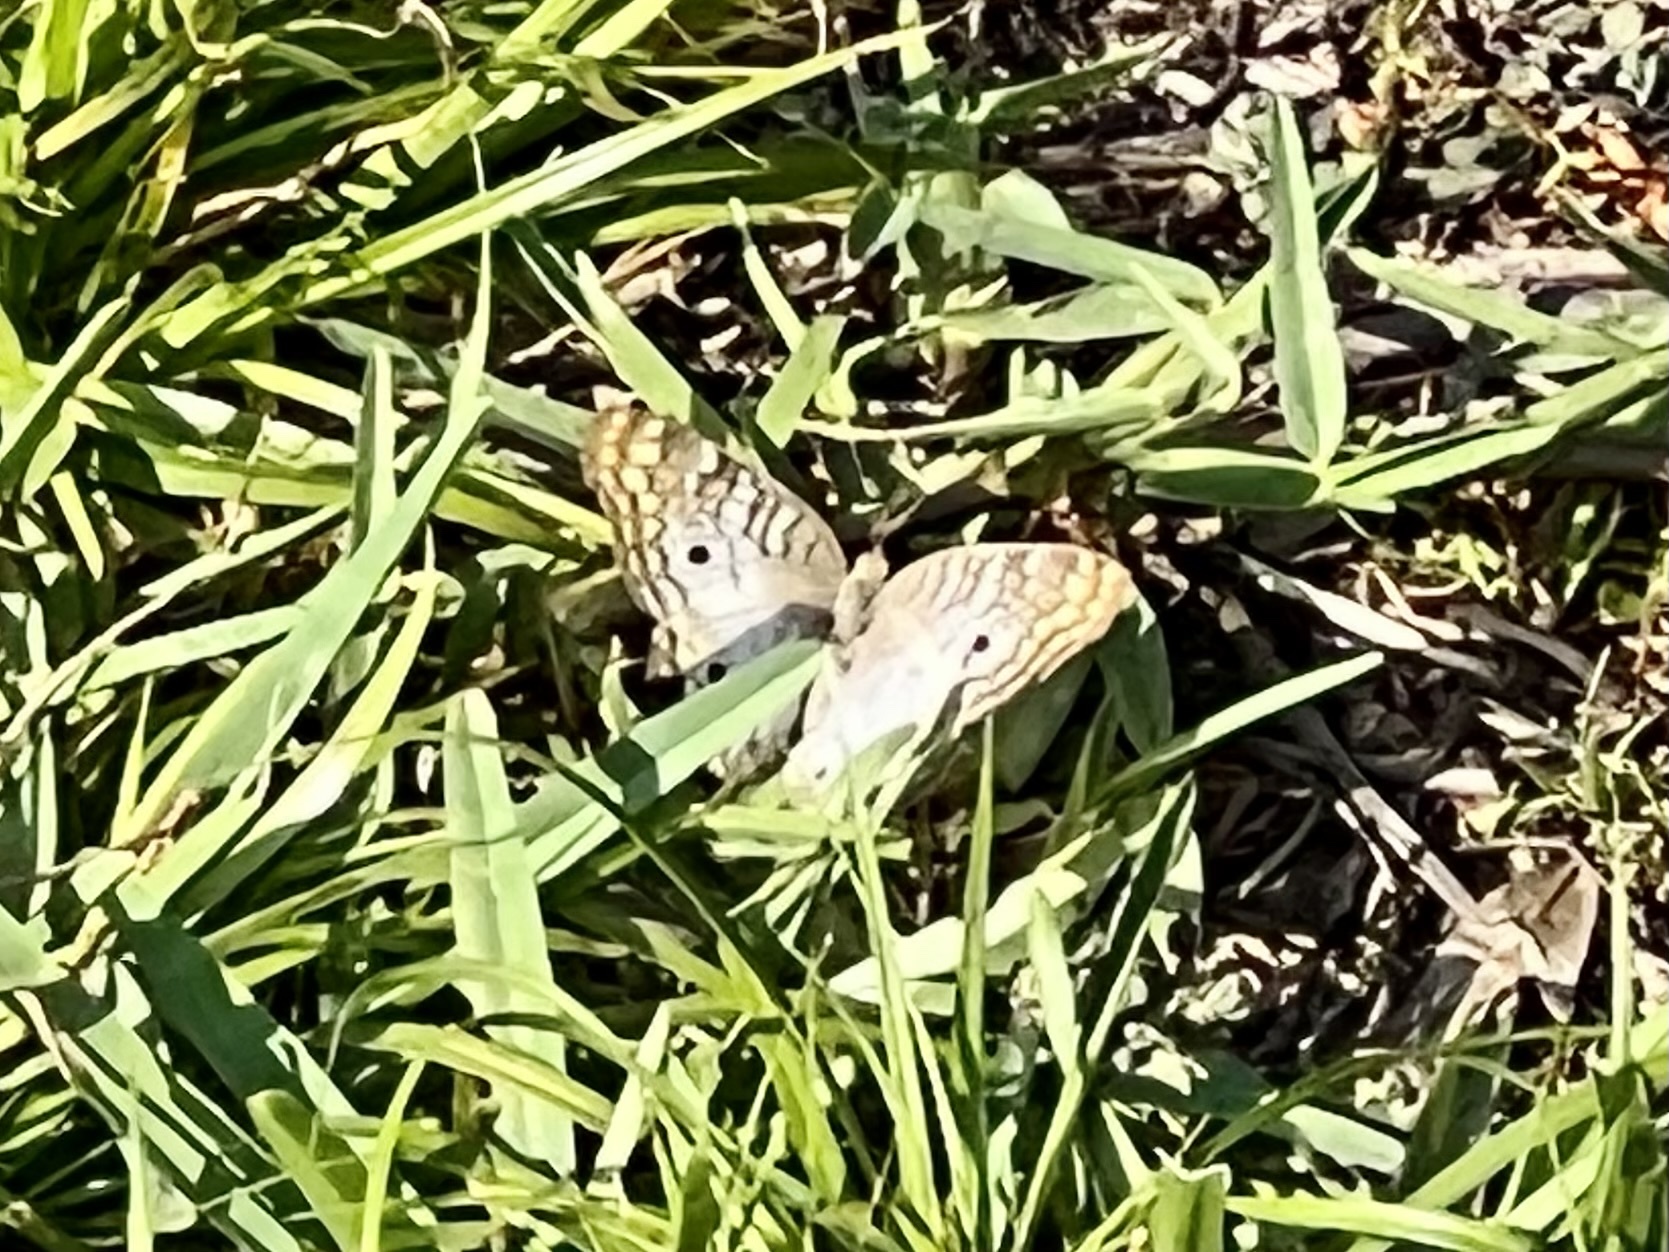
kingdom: Animalia
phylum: Arthropoda
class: Insecta
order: Lepidoptera
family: Nymphalidae
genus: Anartia
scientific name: Anartia jatrophae
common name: White peacock
